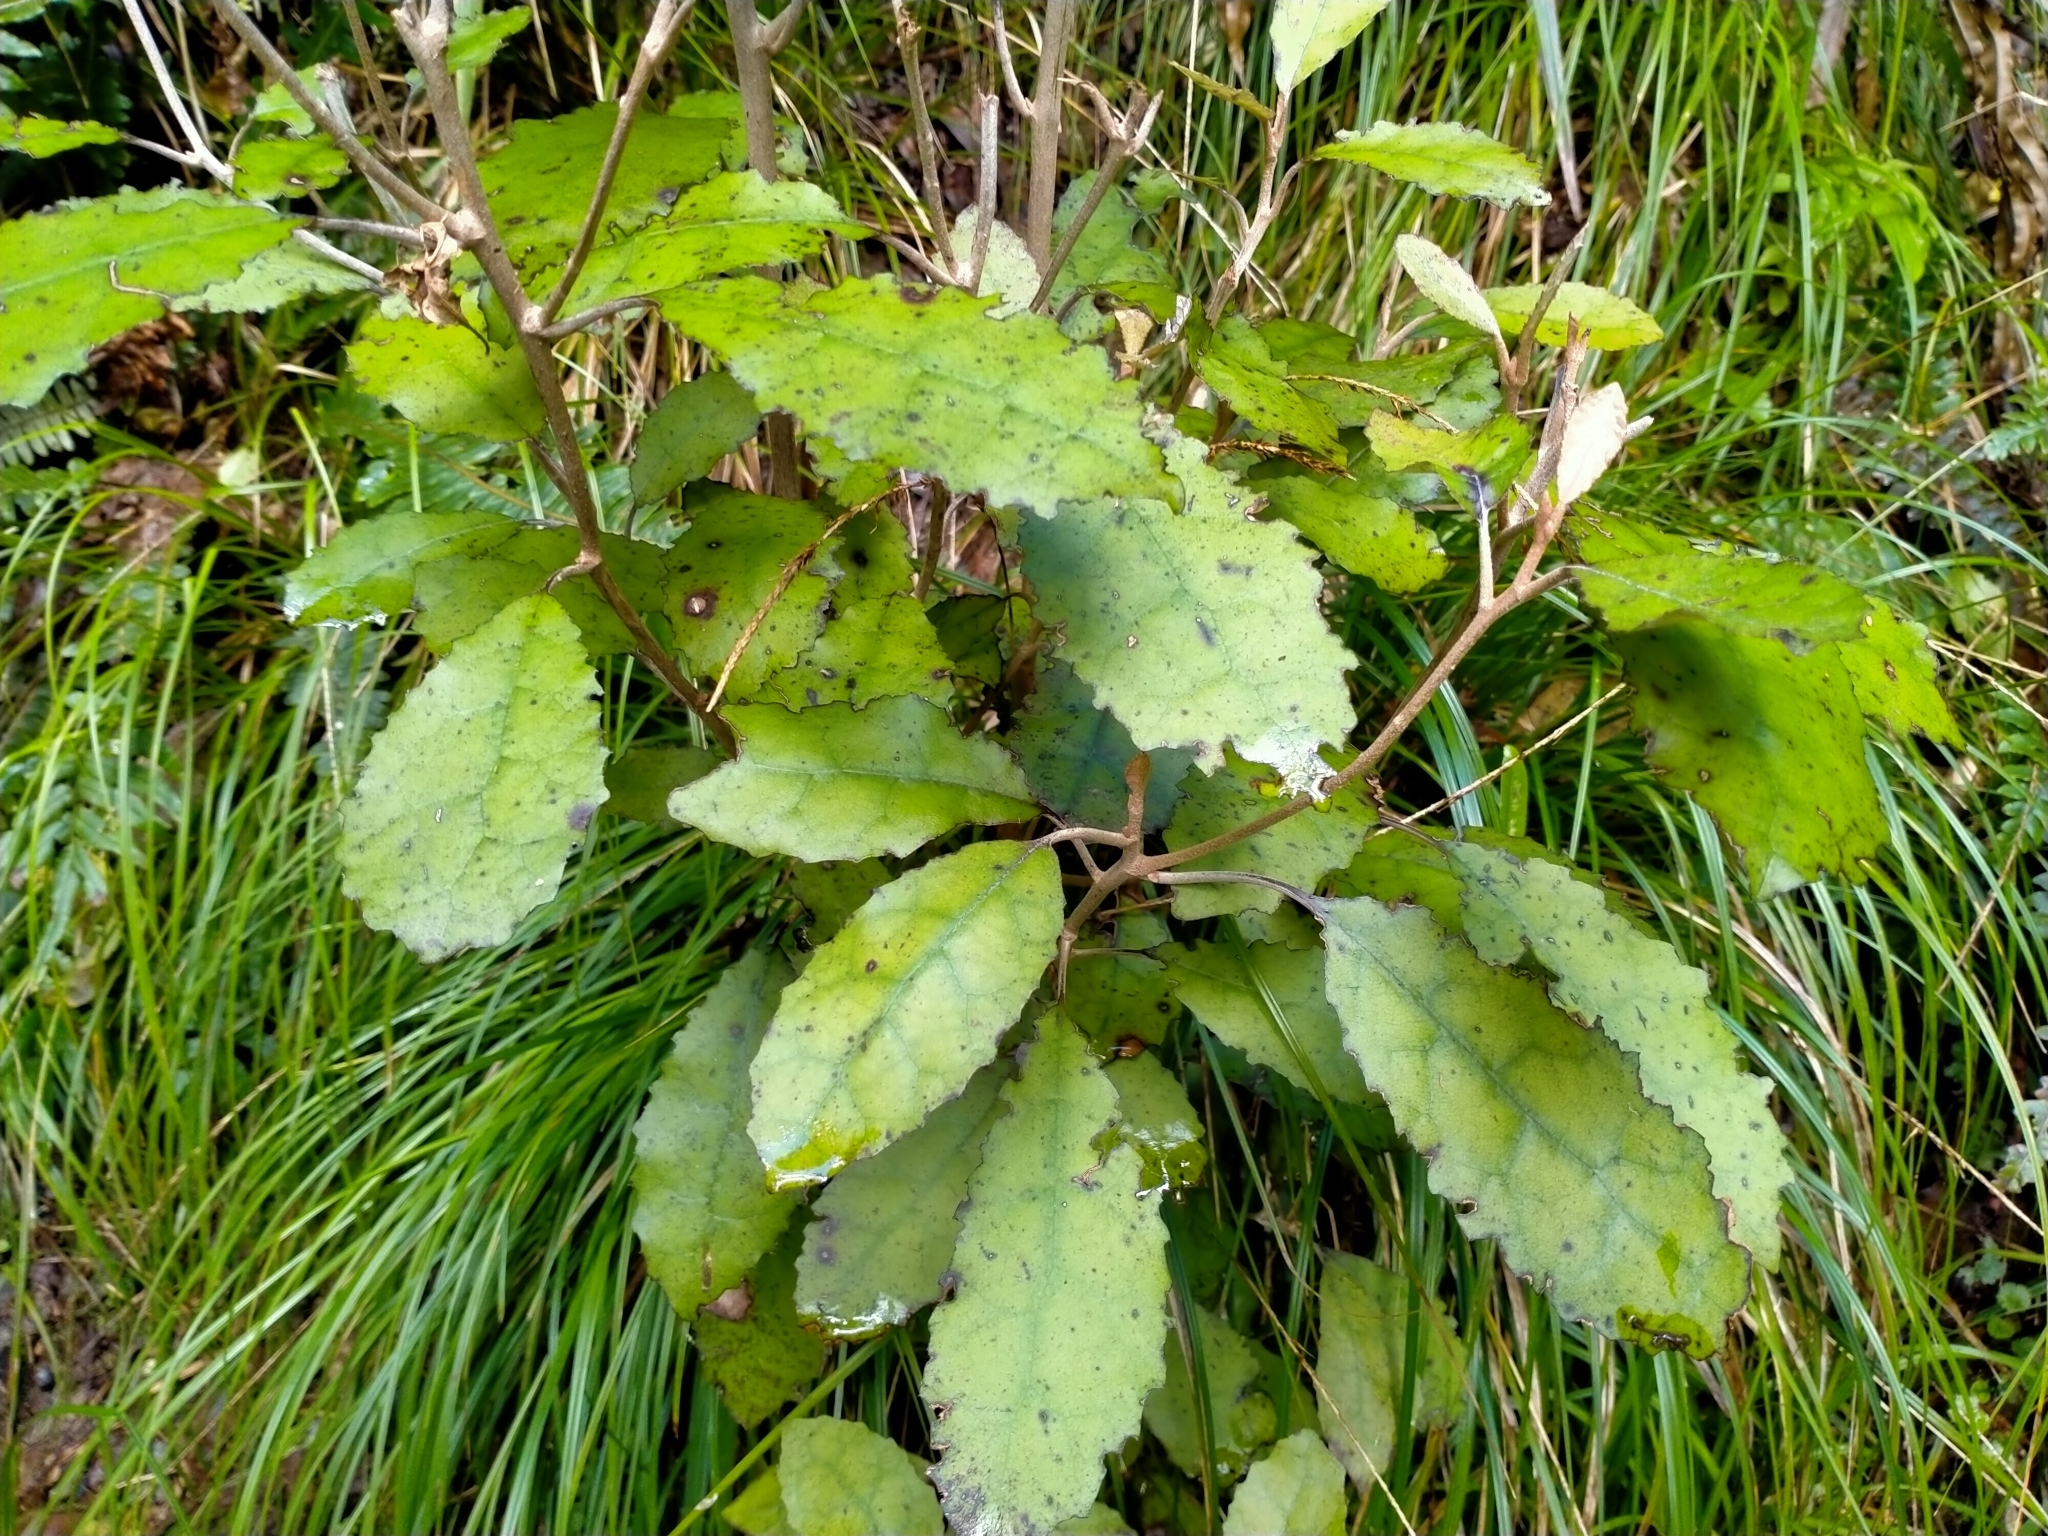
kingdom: Plantae
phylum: Tracheophyta
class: Magnoliopsida
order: Asterales
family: Asteraceae
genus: Olearia
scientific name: Olearia rani
